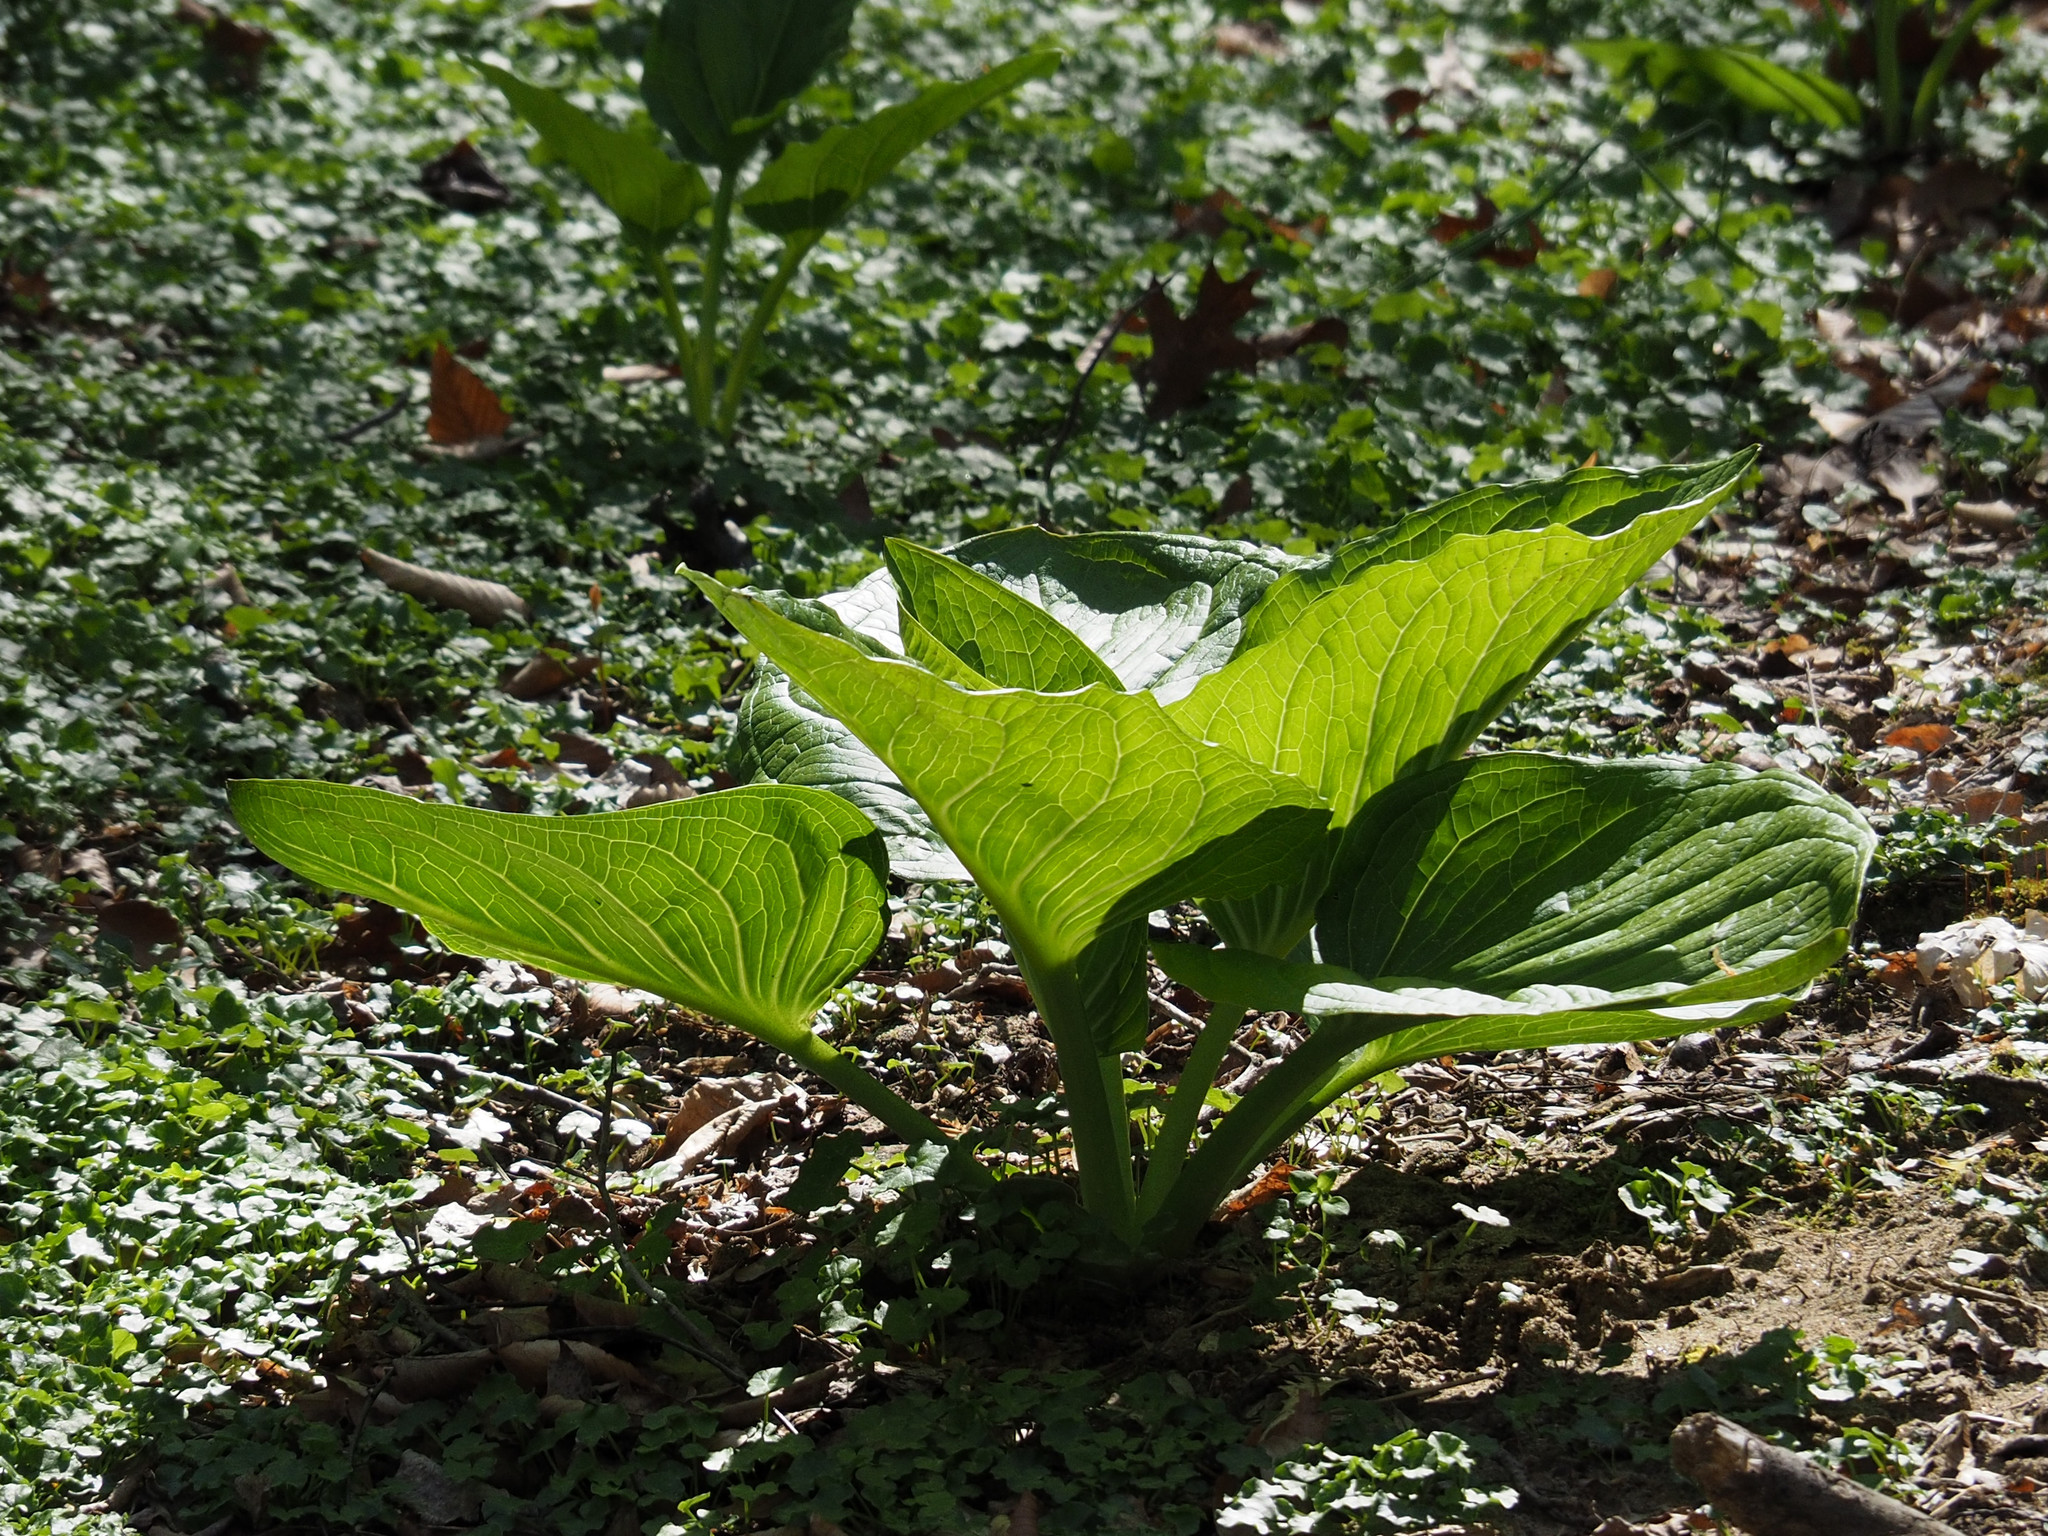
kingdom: Plantae
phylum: Tracheophyta
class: Liliopsida
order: Alismatales
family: Araceae
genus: Symplocarpus
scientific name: Symplocarpus foetidus
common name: Eastern skunk cabbage
